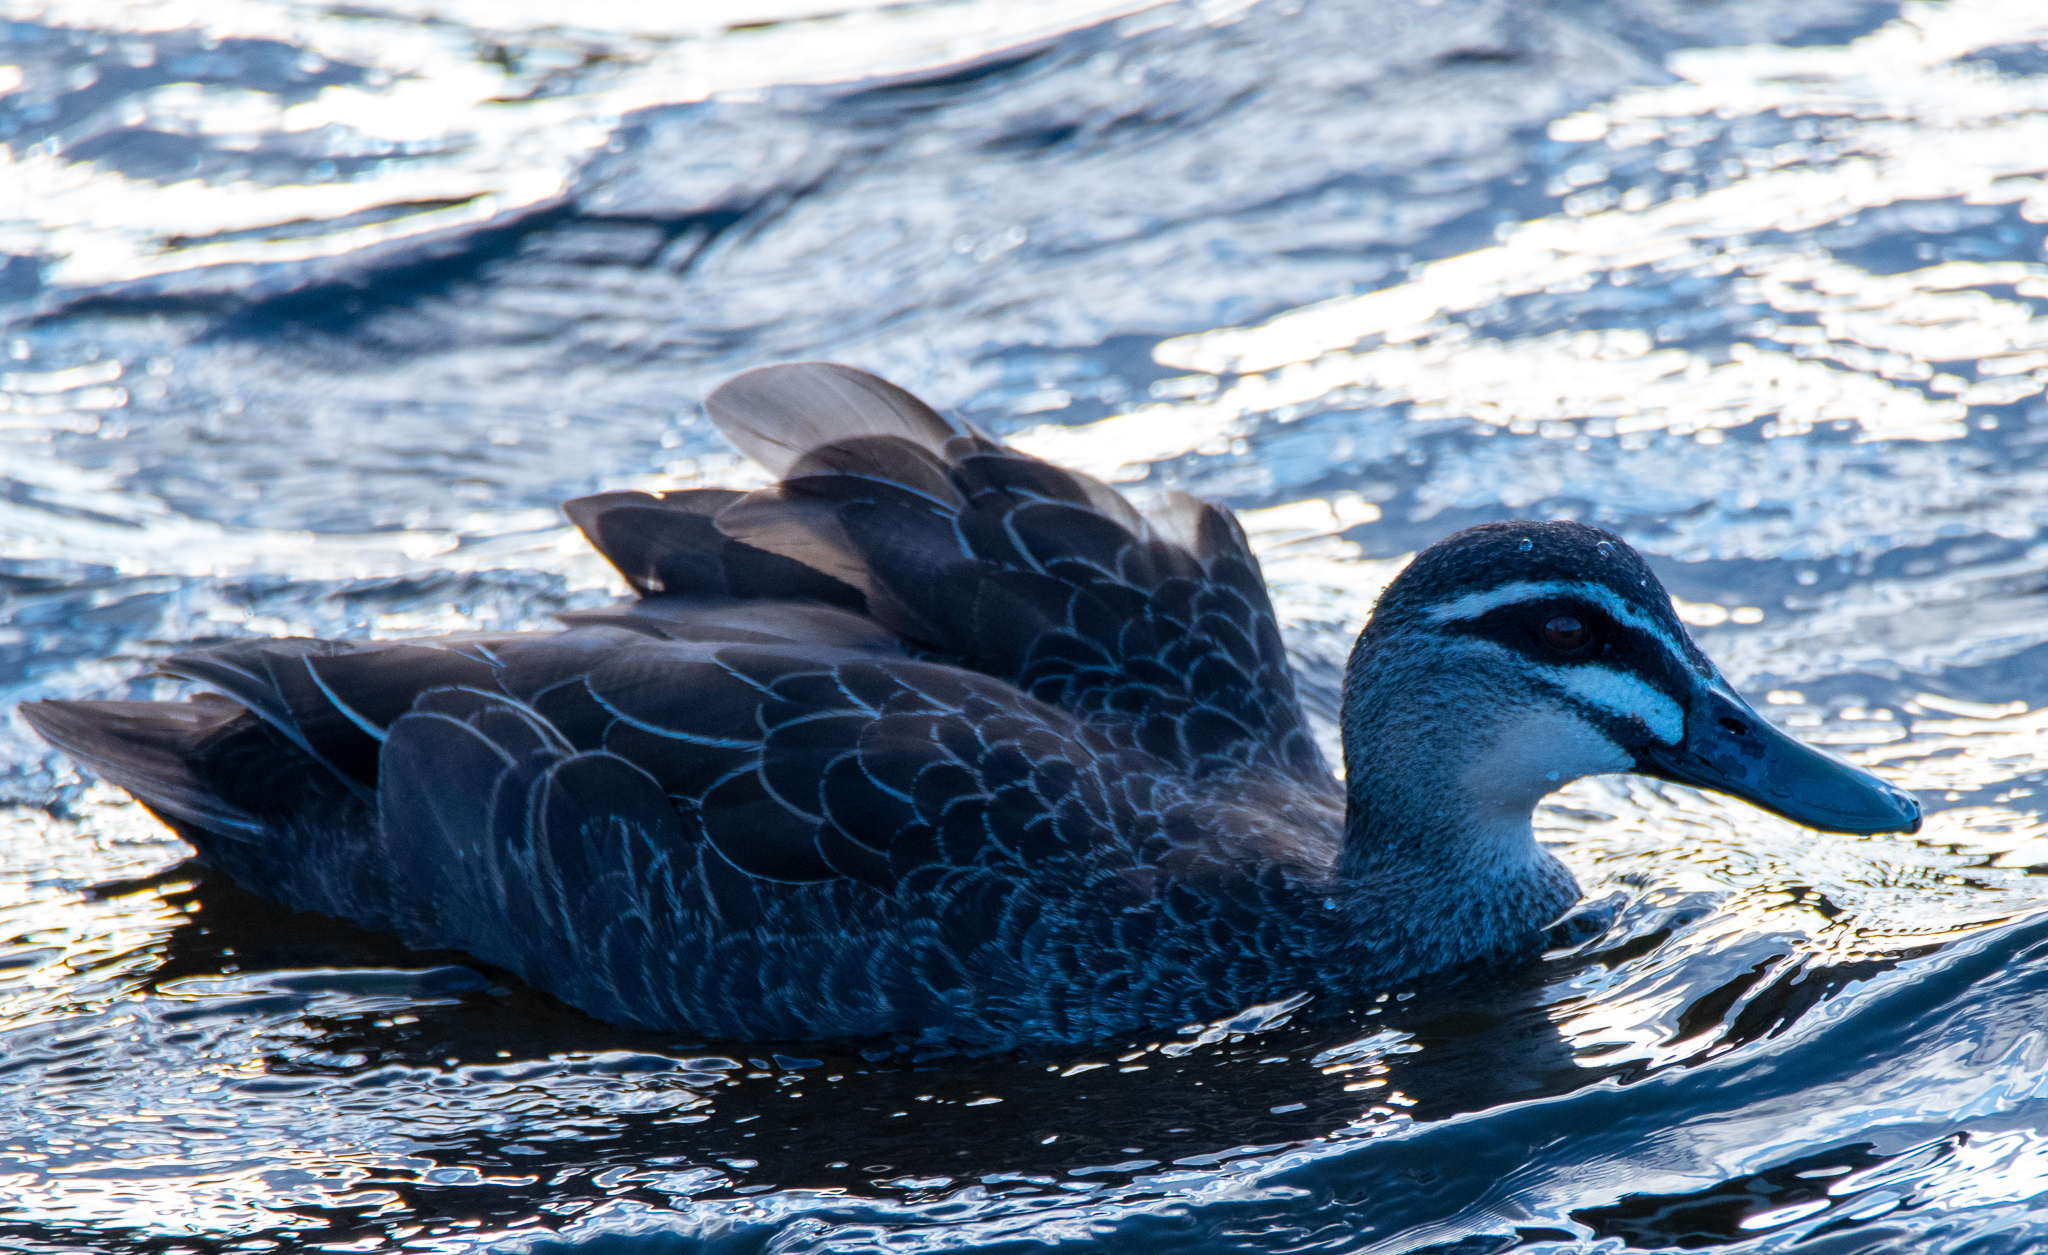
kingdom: Animalia
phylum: Chordata
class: Aves
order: Anseriformes
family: Anatidae
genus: Anas
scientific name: Anas superciliosa
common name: Pacific black duck
